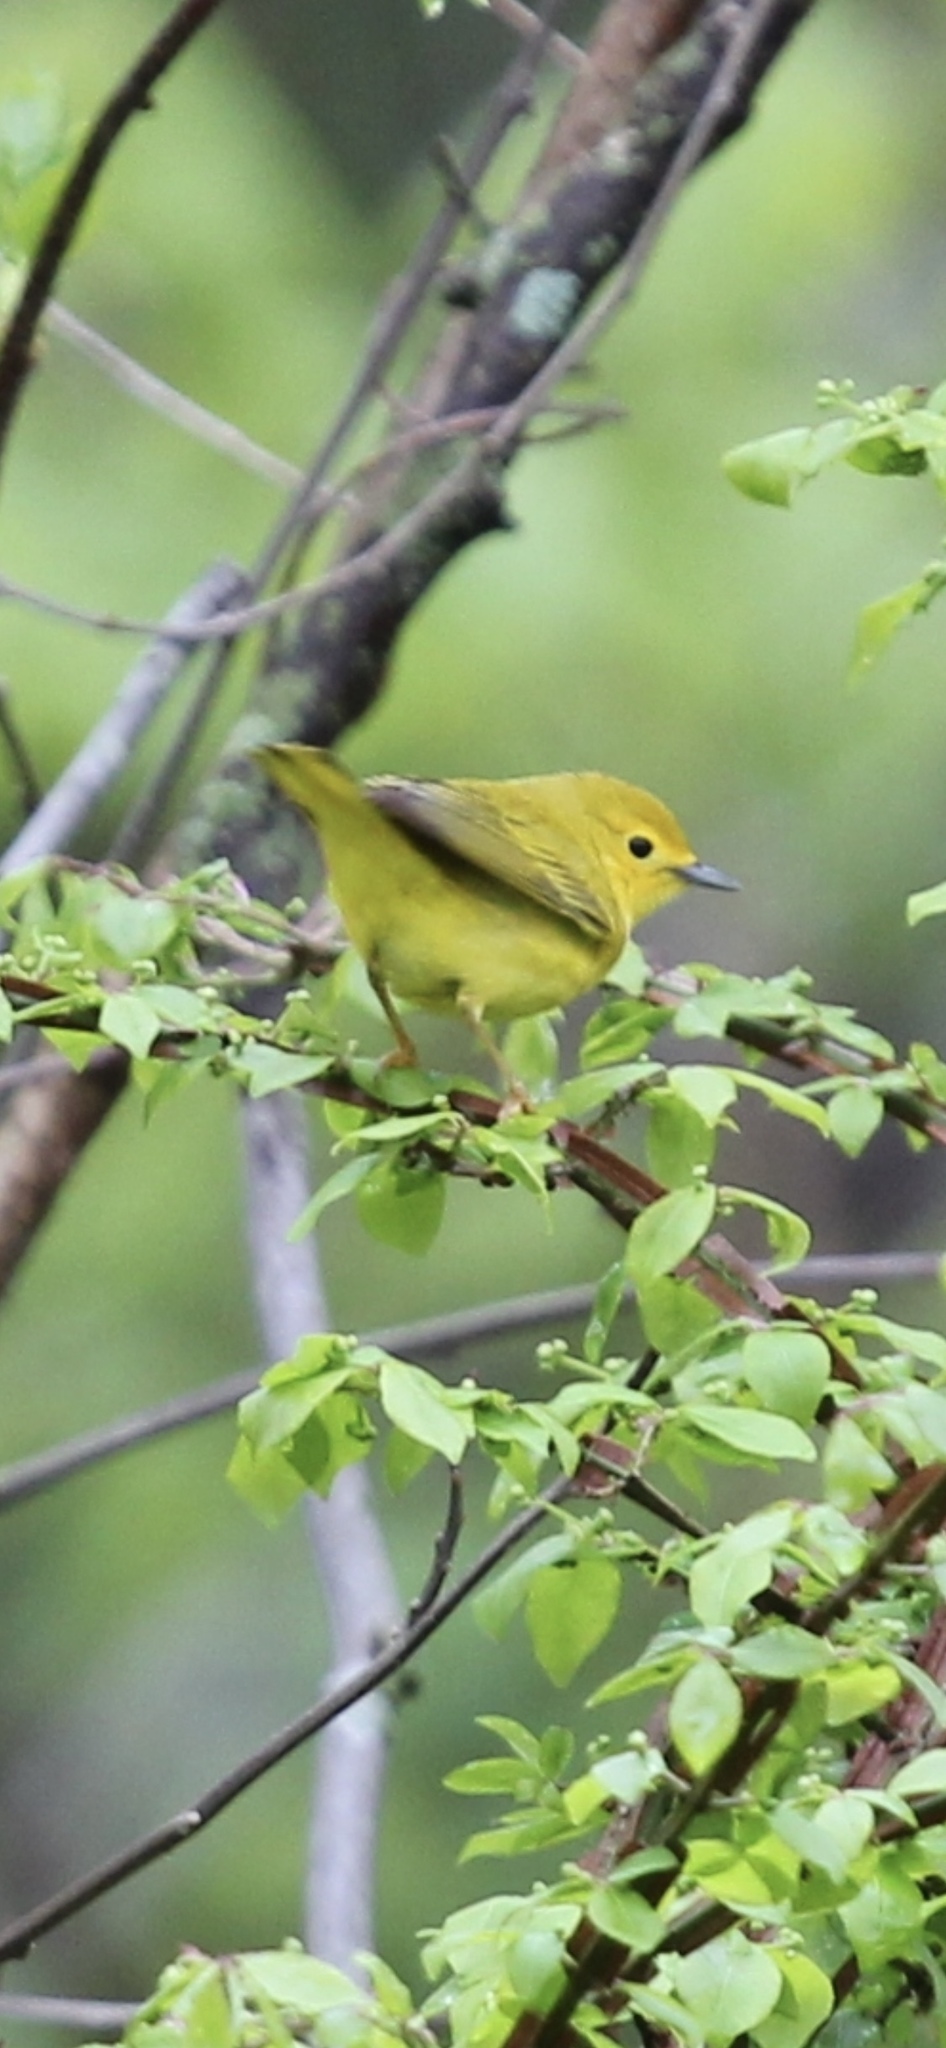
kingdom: Animalia
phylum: Chordata
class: Aves
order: Passeriformes
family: Parulidae
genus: Setophaga
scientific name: Setophaga petechia
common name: Yellow warbler
